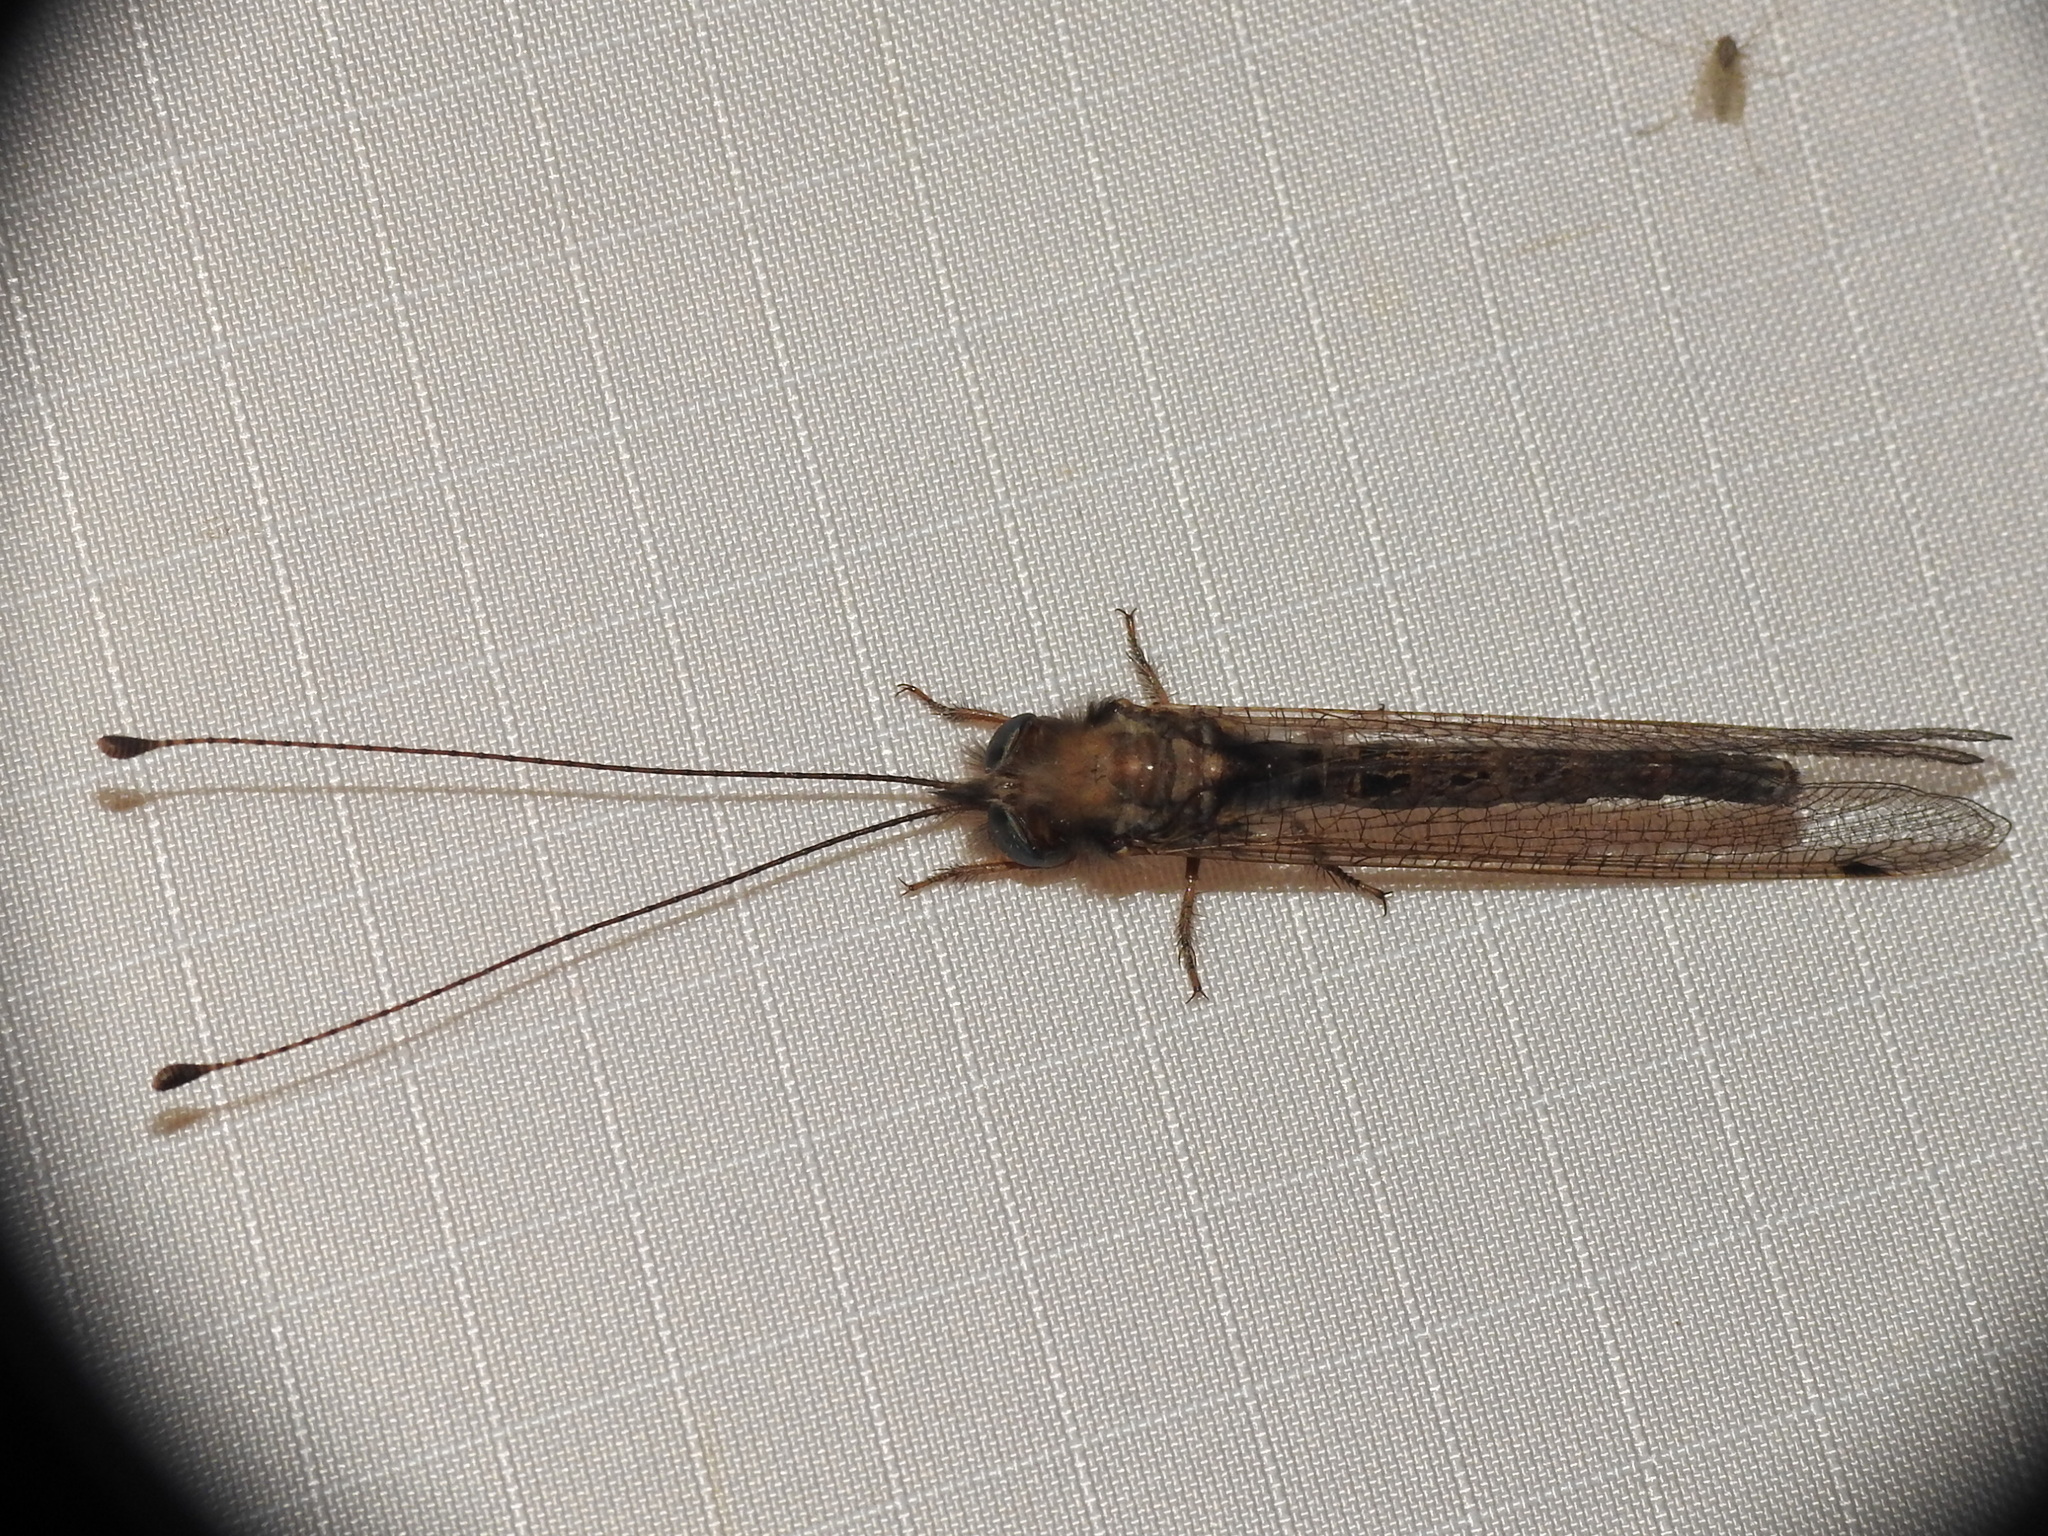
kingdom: Animalia
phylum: Arthropoda
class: Insecta
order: Neuroptera
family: Ascalaphidae
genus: Ululodes
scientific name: Ululodes macleayanus
